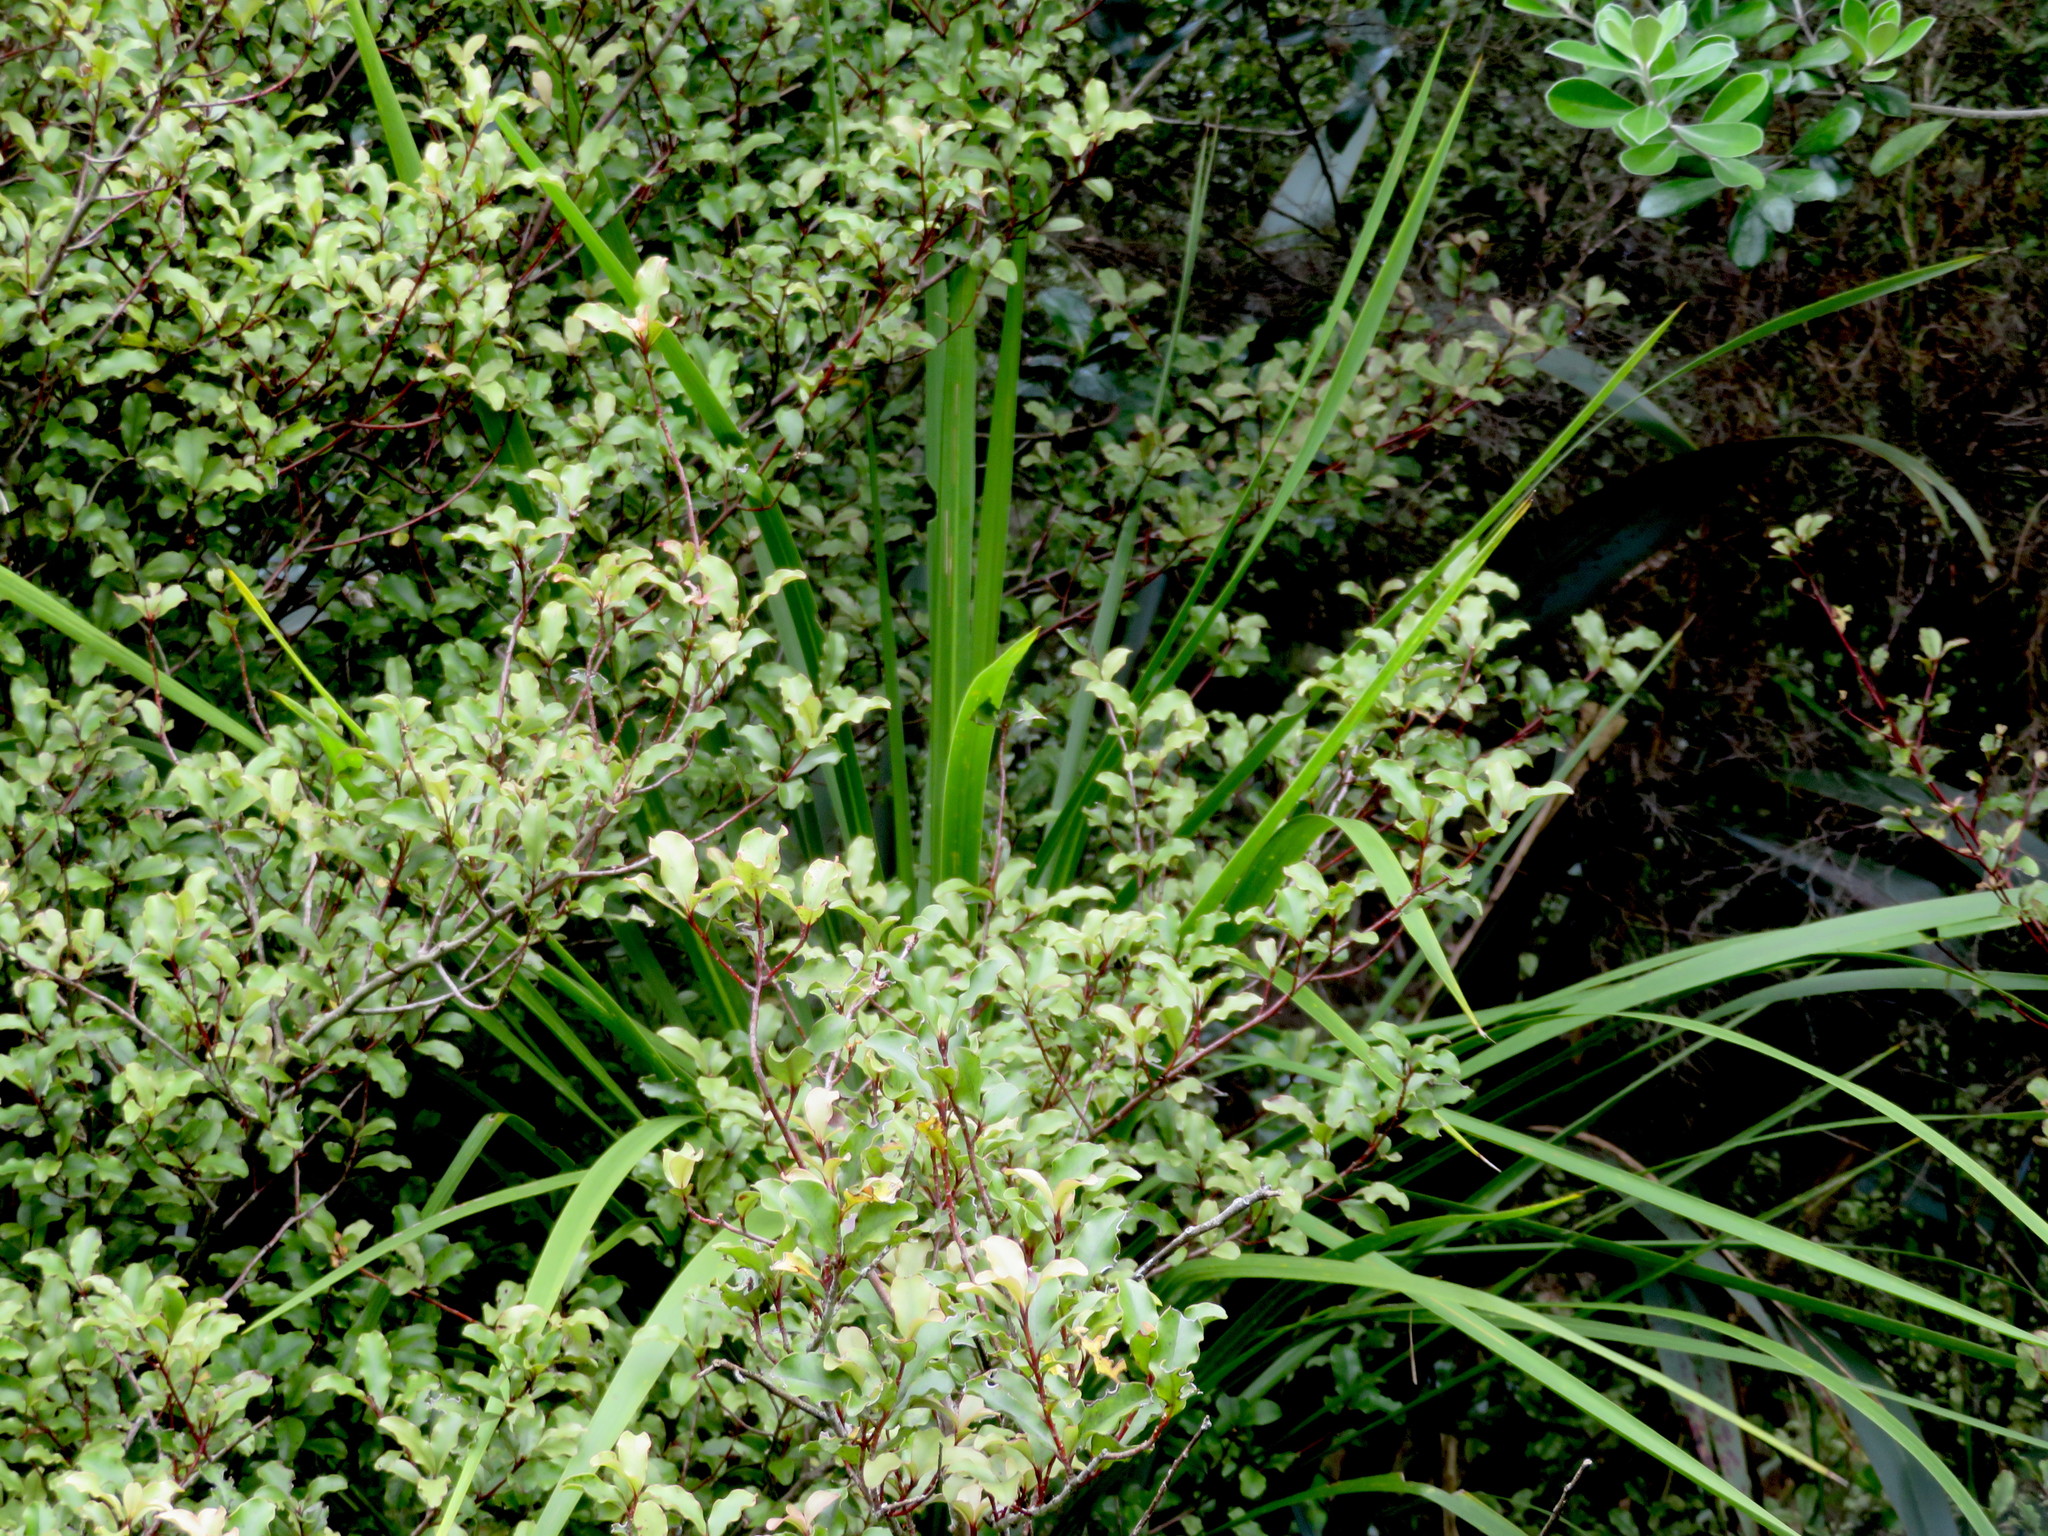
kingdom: Plantae
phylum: Tracheophyta
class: Magnoliopsida
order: Ericales
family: Primulaceae
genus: Myrsine
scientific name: Myrsine australis
